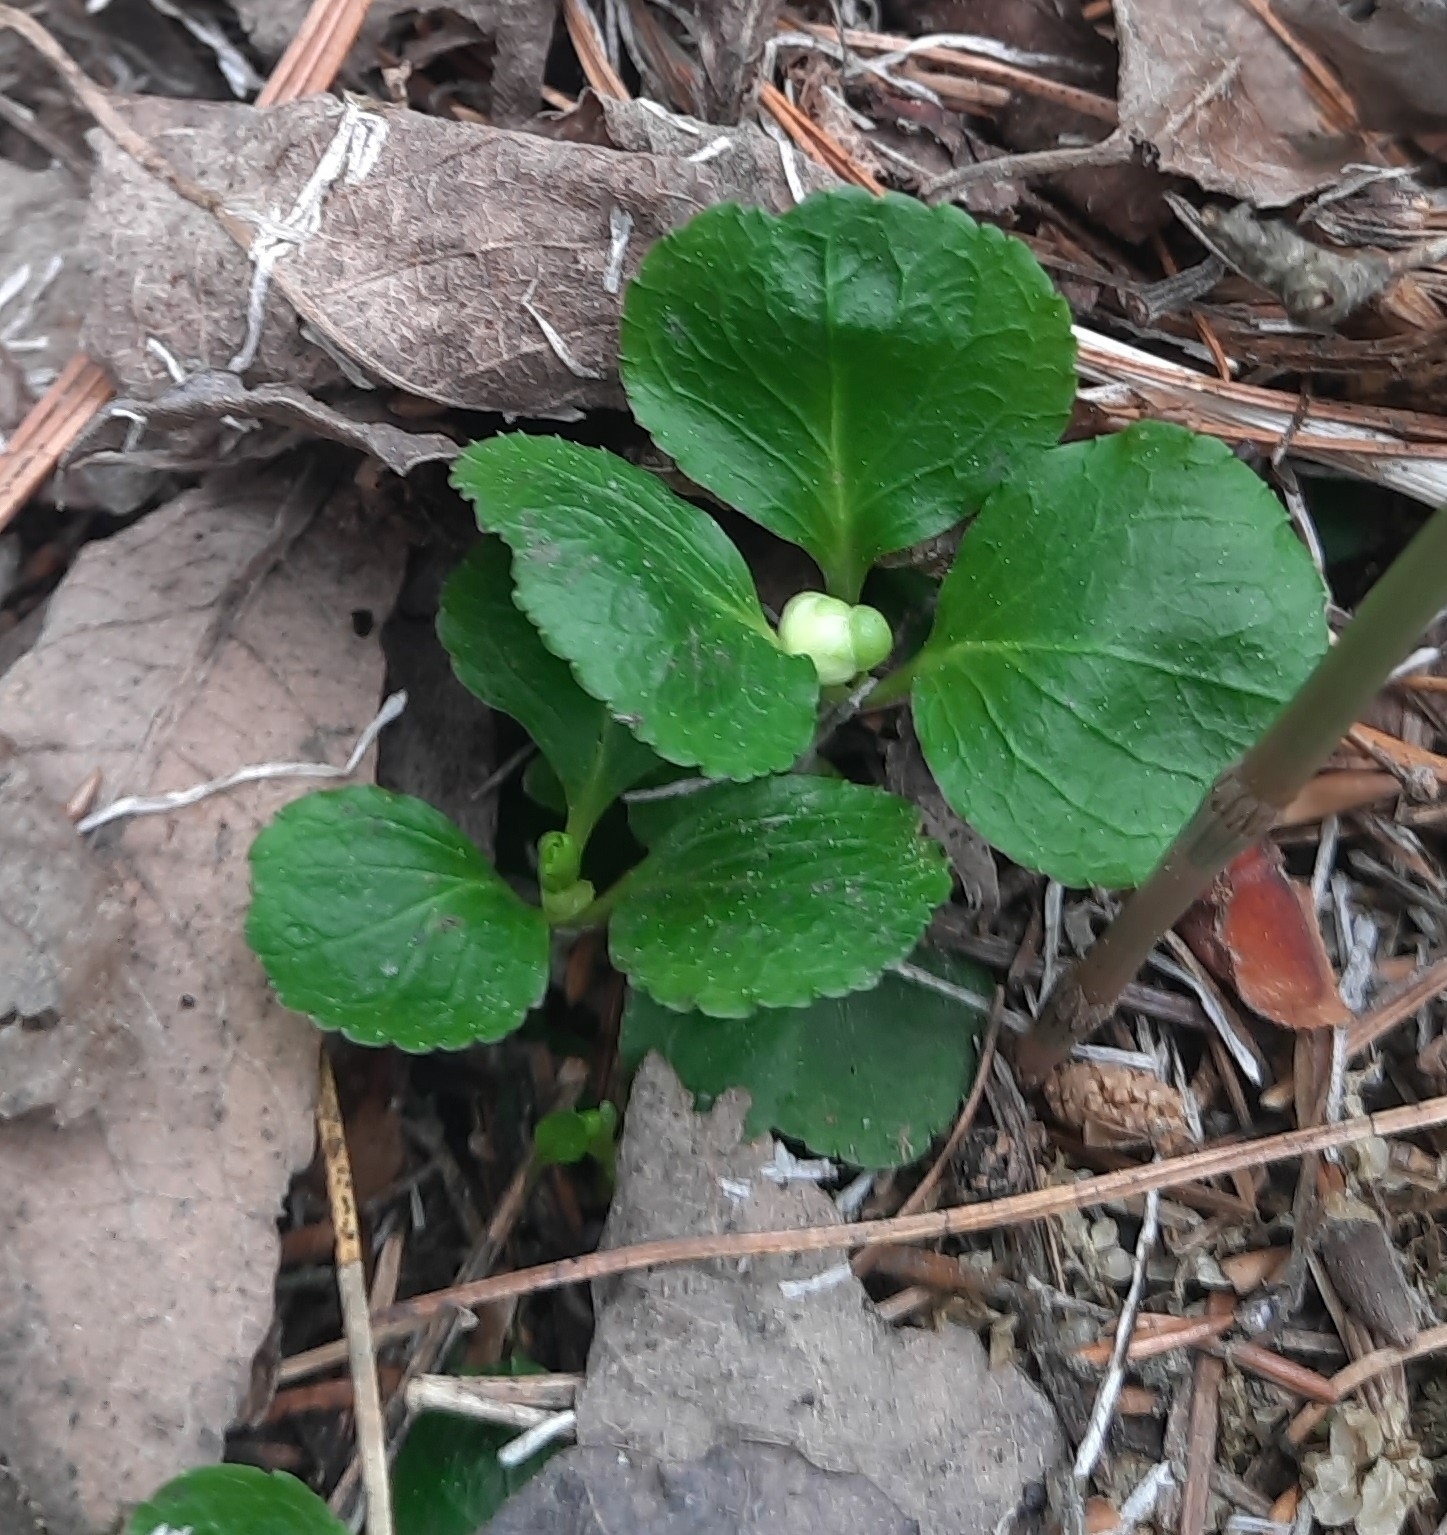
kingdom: Plantae
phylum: Tracheophyta
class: Magnoliopsida
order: Ericales
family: Ericaceae
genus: Moneses
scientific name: Moneses uniflora
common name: One-flowered wintergreen
